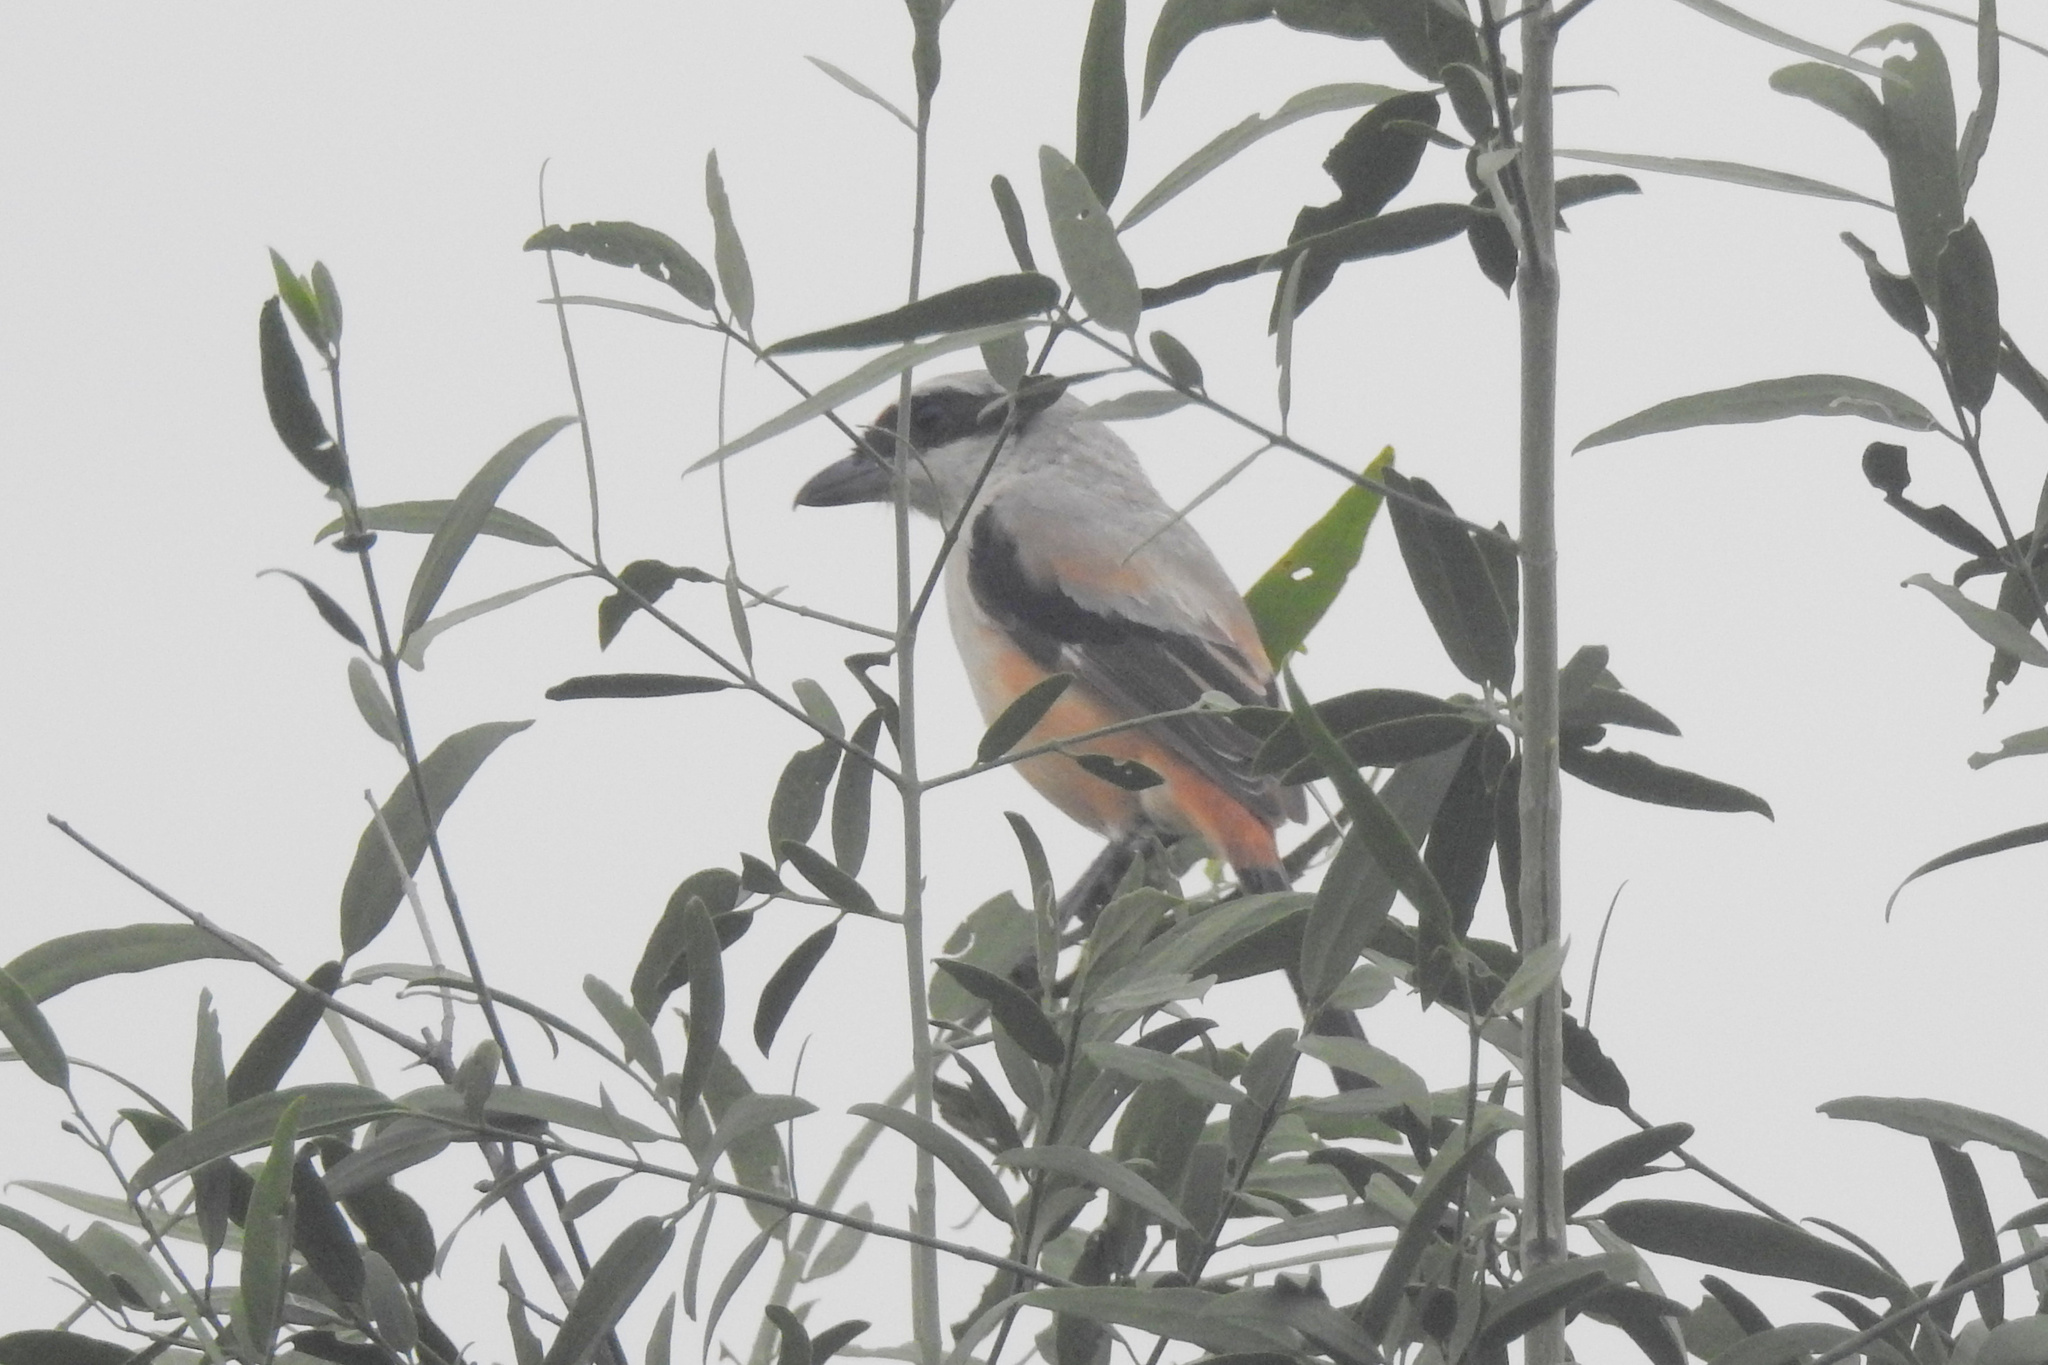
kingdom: Animalia
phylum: Chordata
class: Aves
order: Passeriformes
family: Laniidae
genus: Lanius
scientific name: Lanius schach
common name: Long-tailed shrike
